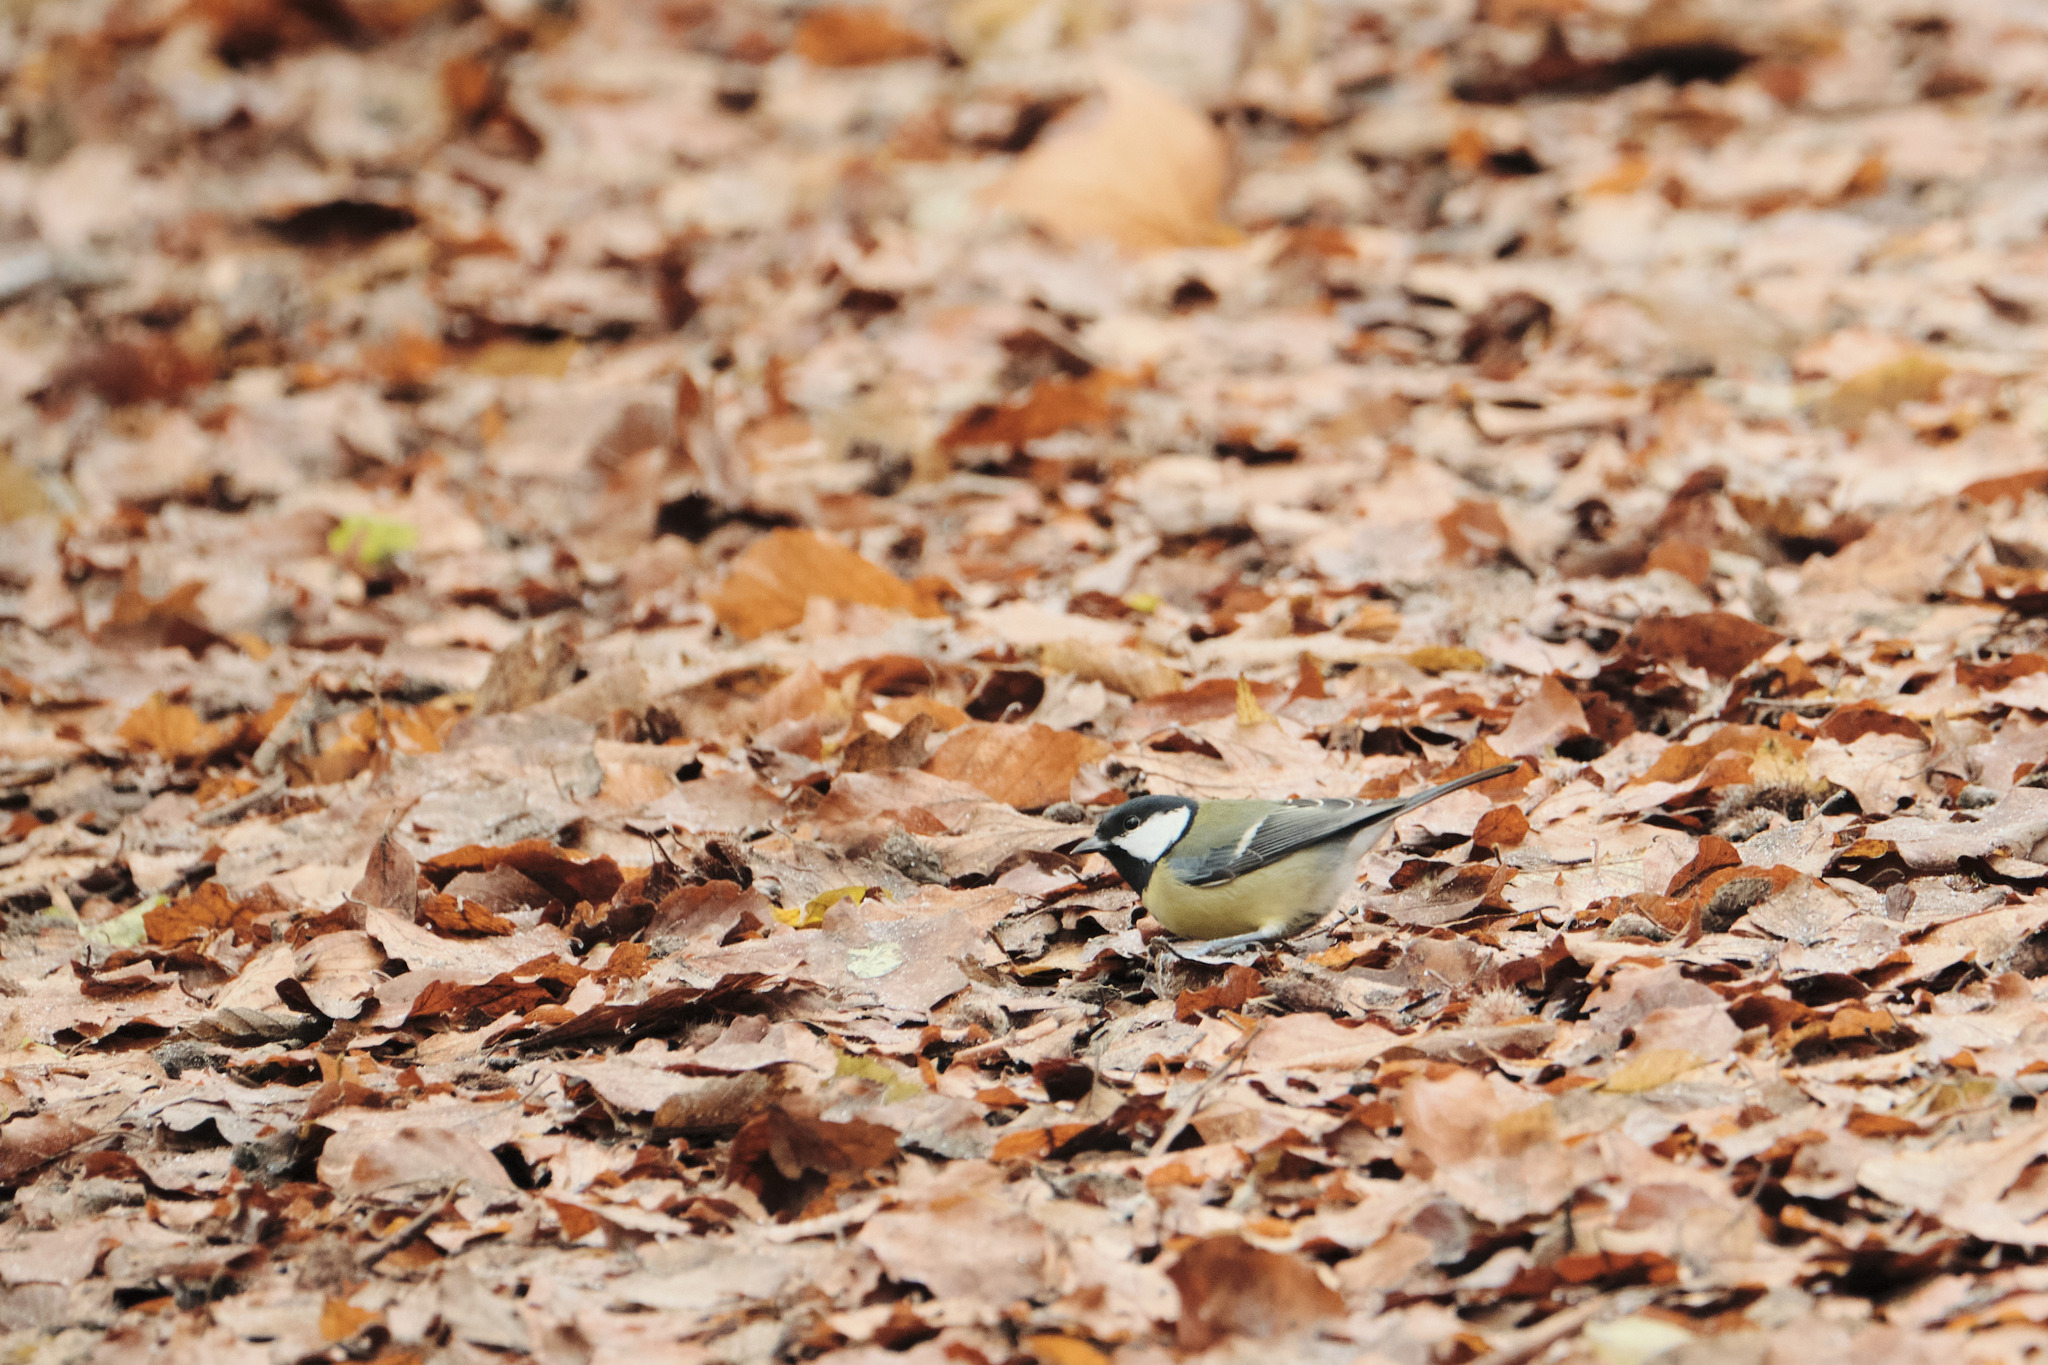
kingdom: Animalia
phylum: Chordata
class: Aves
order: Passeriformes
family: Paridae
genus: Parus
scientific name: Parus major
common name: Great tit
